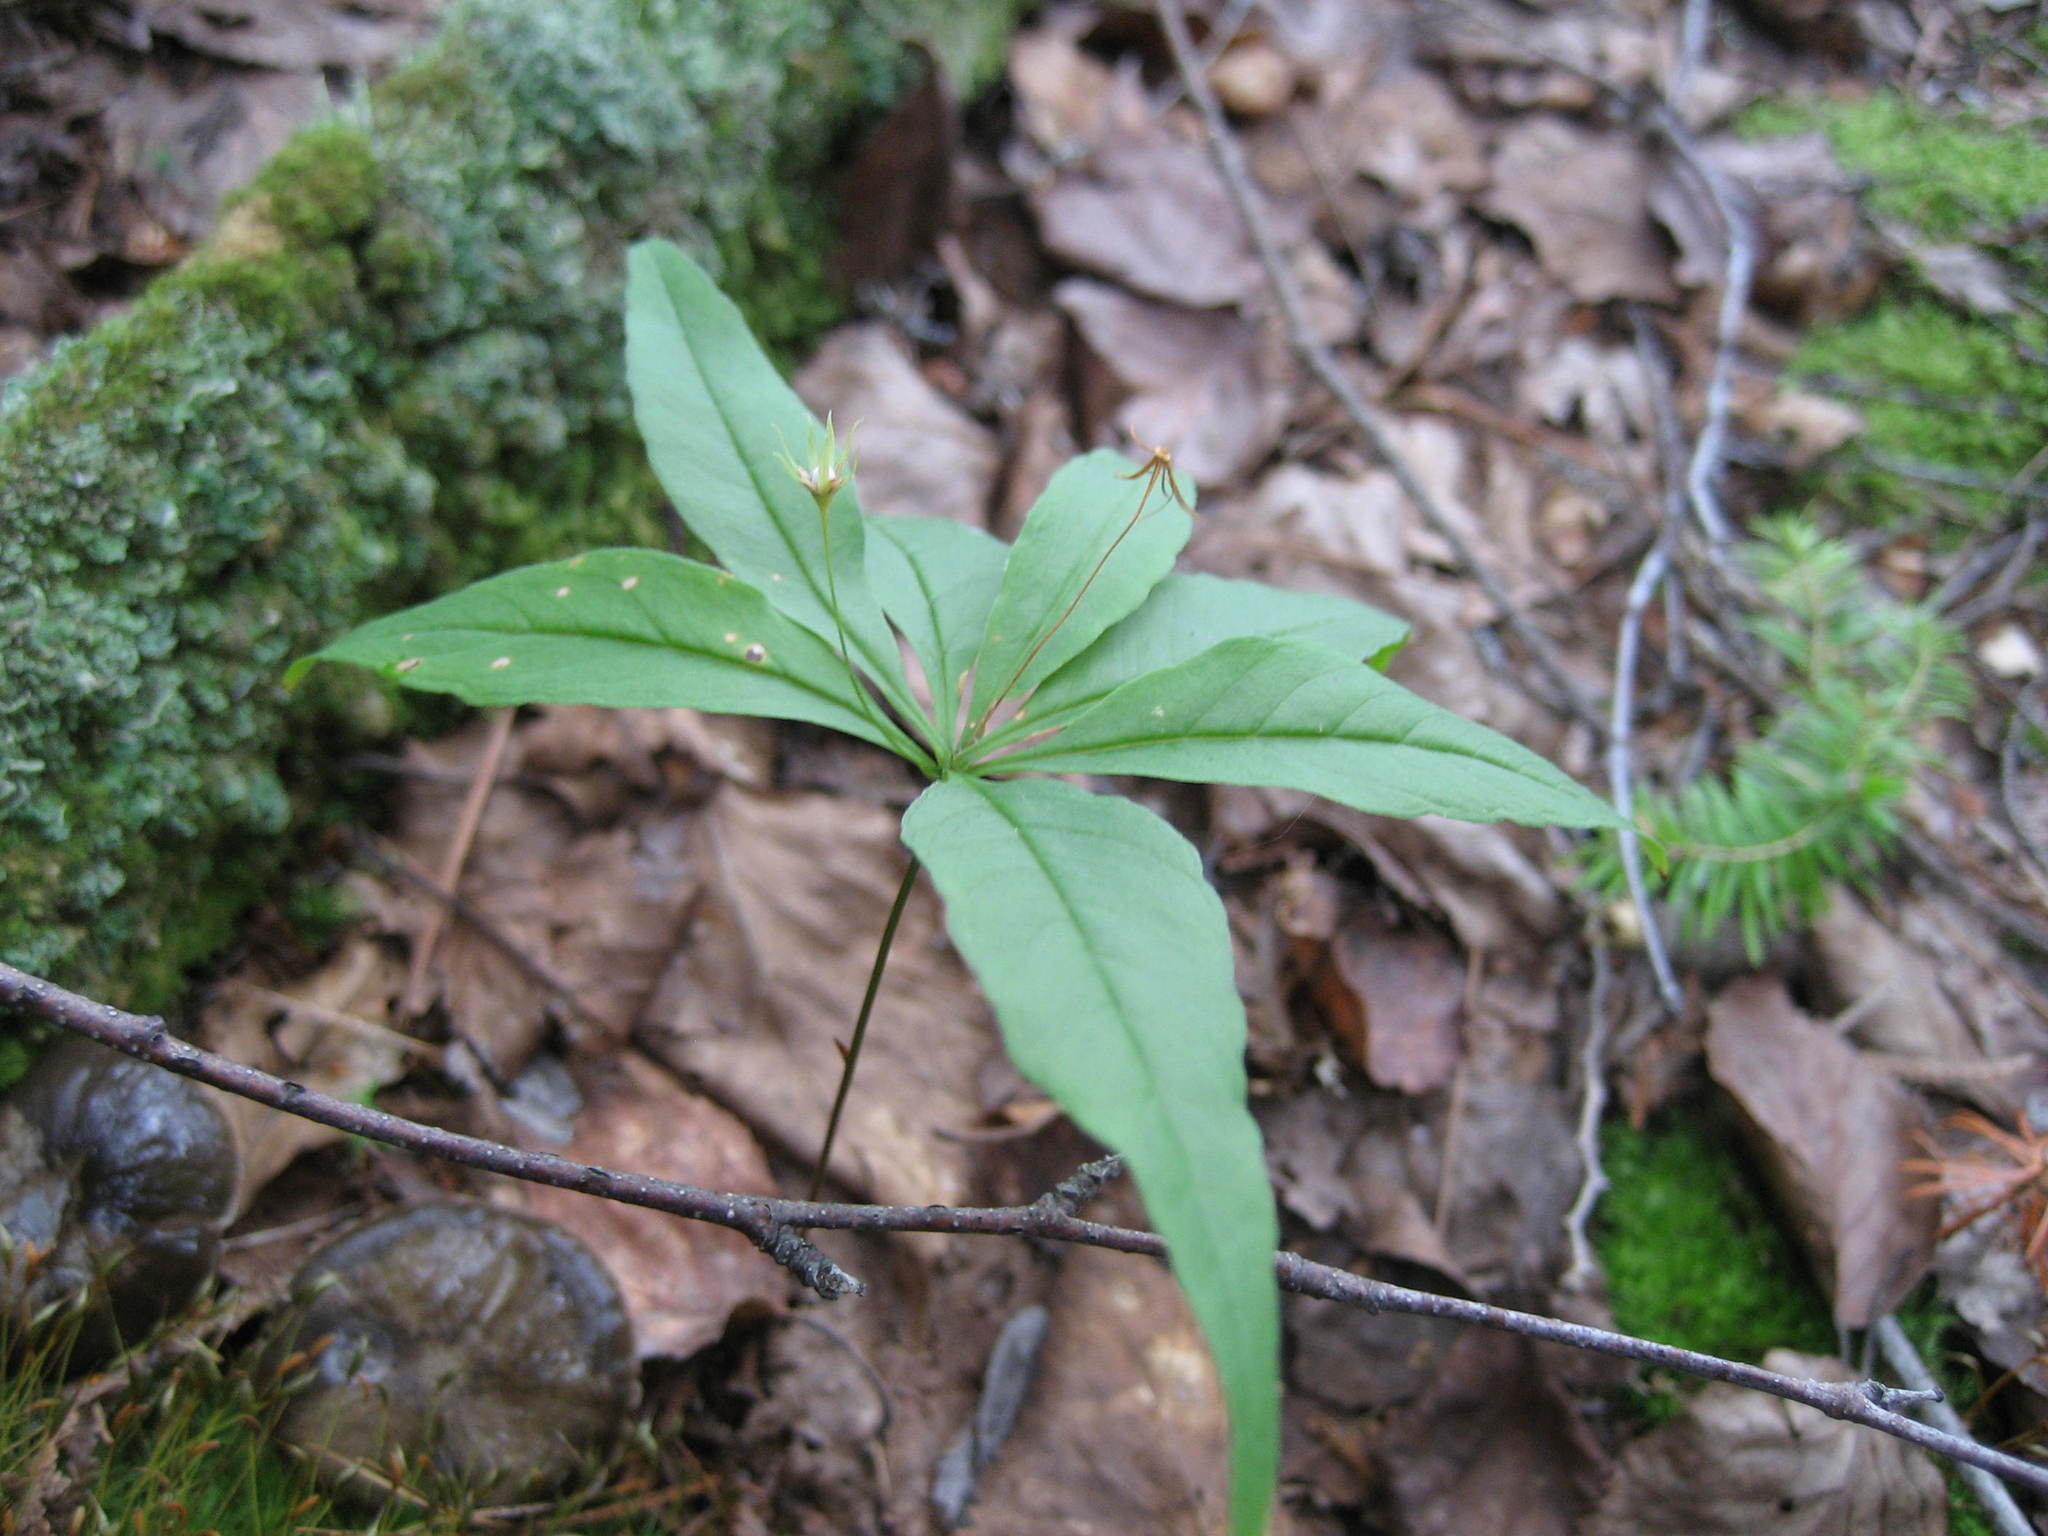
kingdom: Plantae
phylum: Tracheophyta
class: Magnoliopsida
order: Ericales
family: Primulaceae
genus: Lysimachia
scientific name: Lysimachia borealis
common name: American starflower
